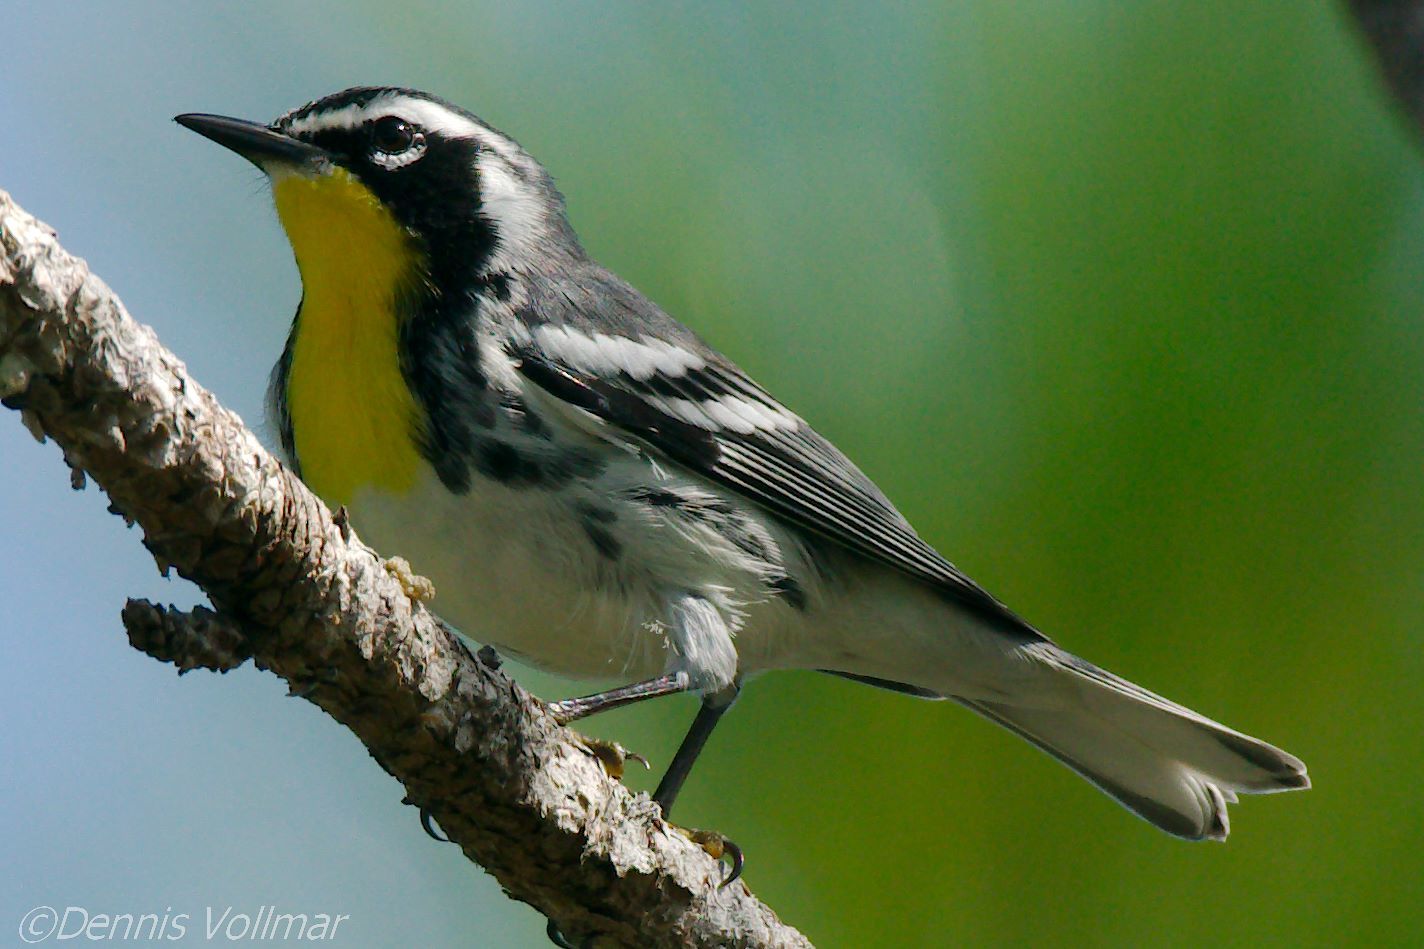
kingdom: Animalia
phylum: Chordata
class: Aves
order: Passeriformes
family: Parulidae
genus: Setophaga
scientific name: Setophaga dominica
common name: Yellow-throated warbler
